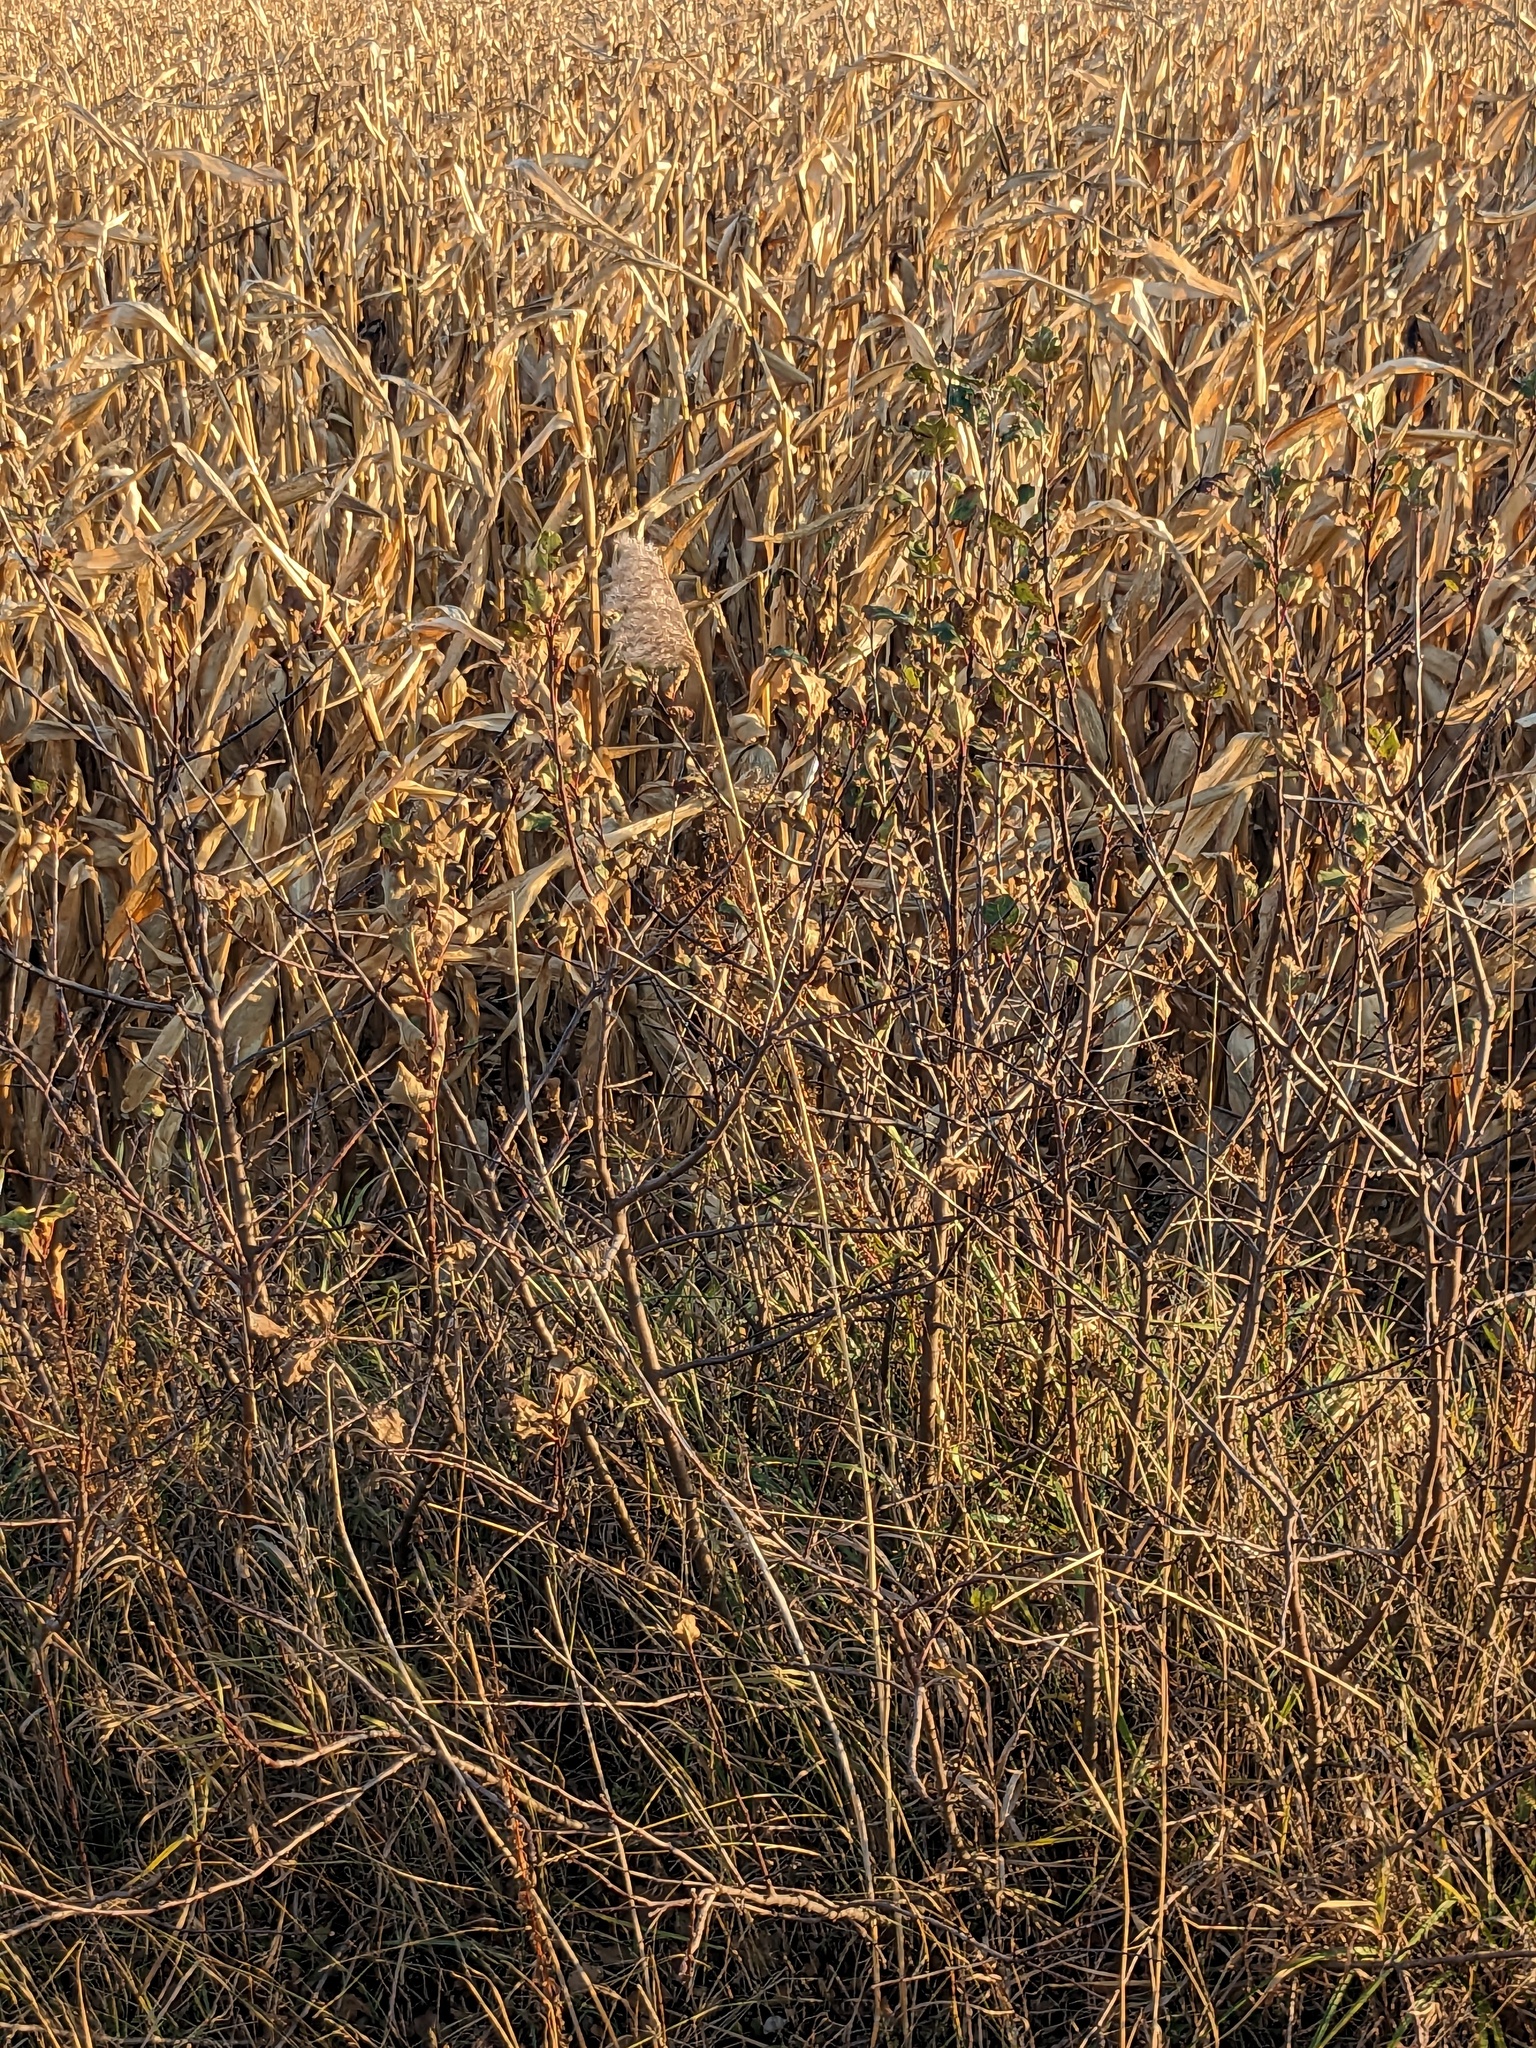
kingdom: Plantae
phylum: Tracheophyta
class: Liliopsida
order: Poales
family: Poaceae
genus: Phragmites
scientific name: Phragmites australis
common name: Common reed
